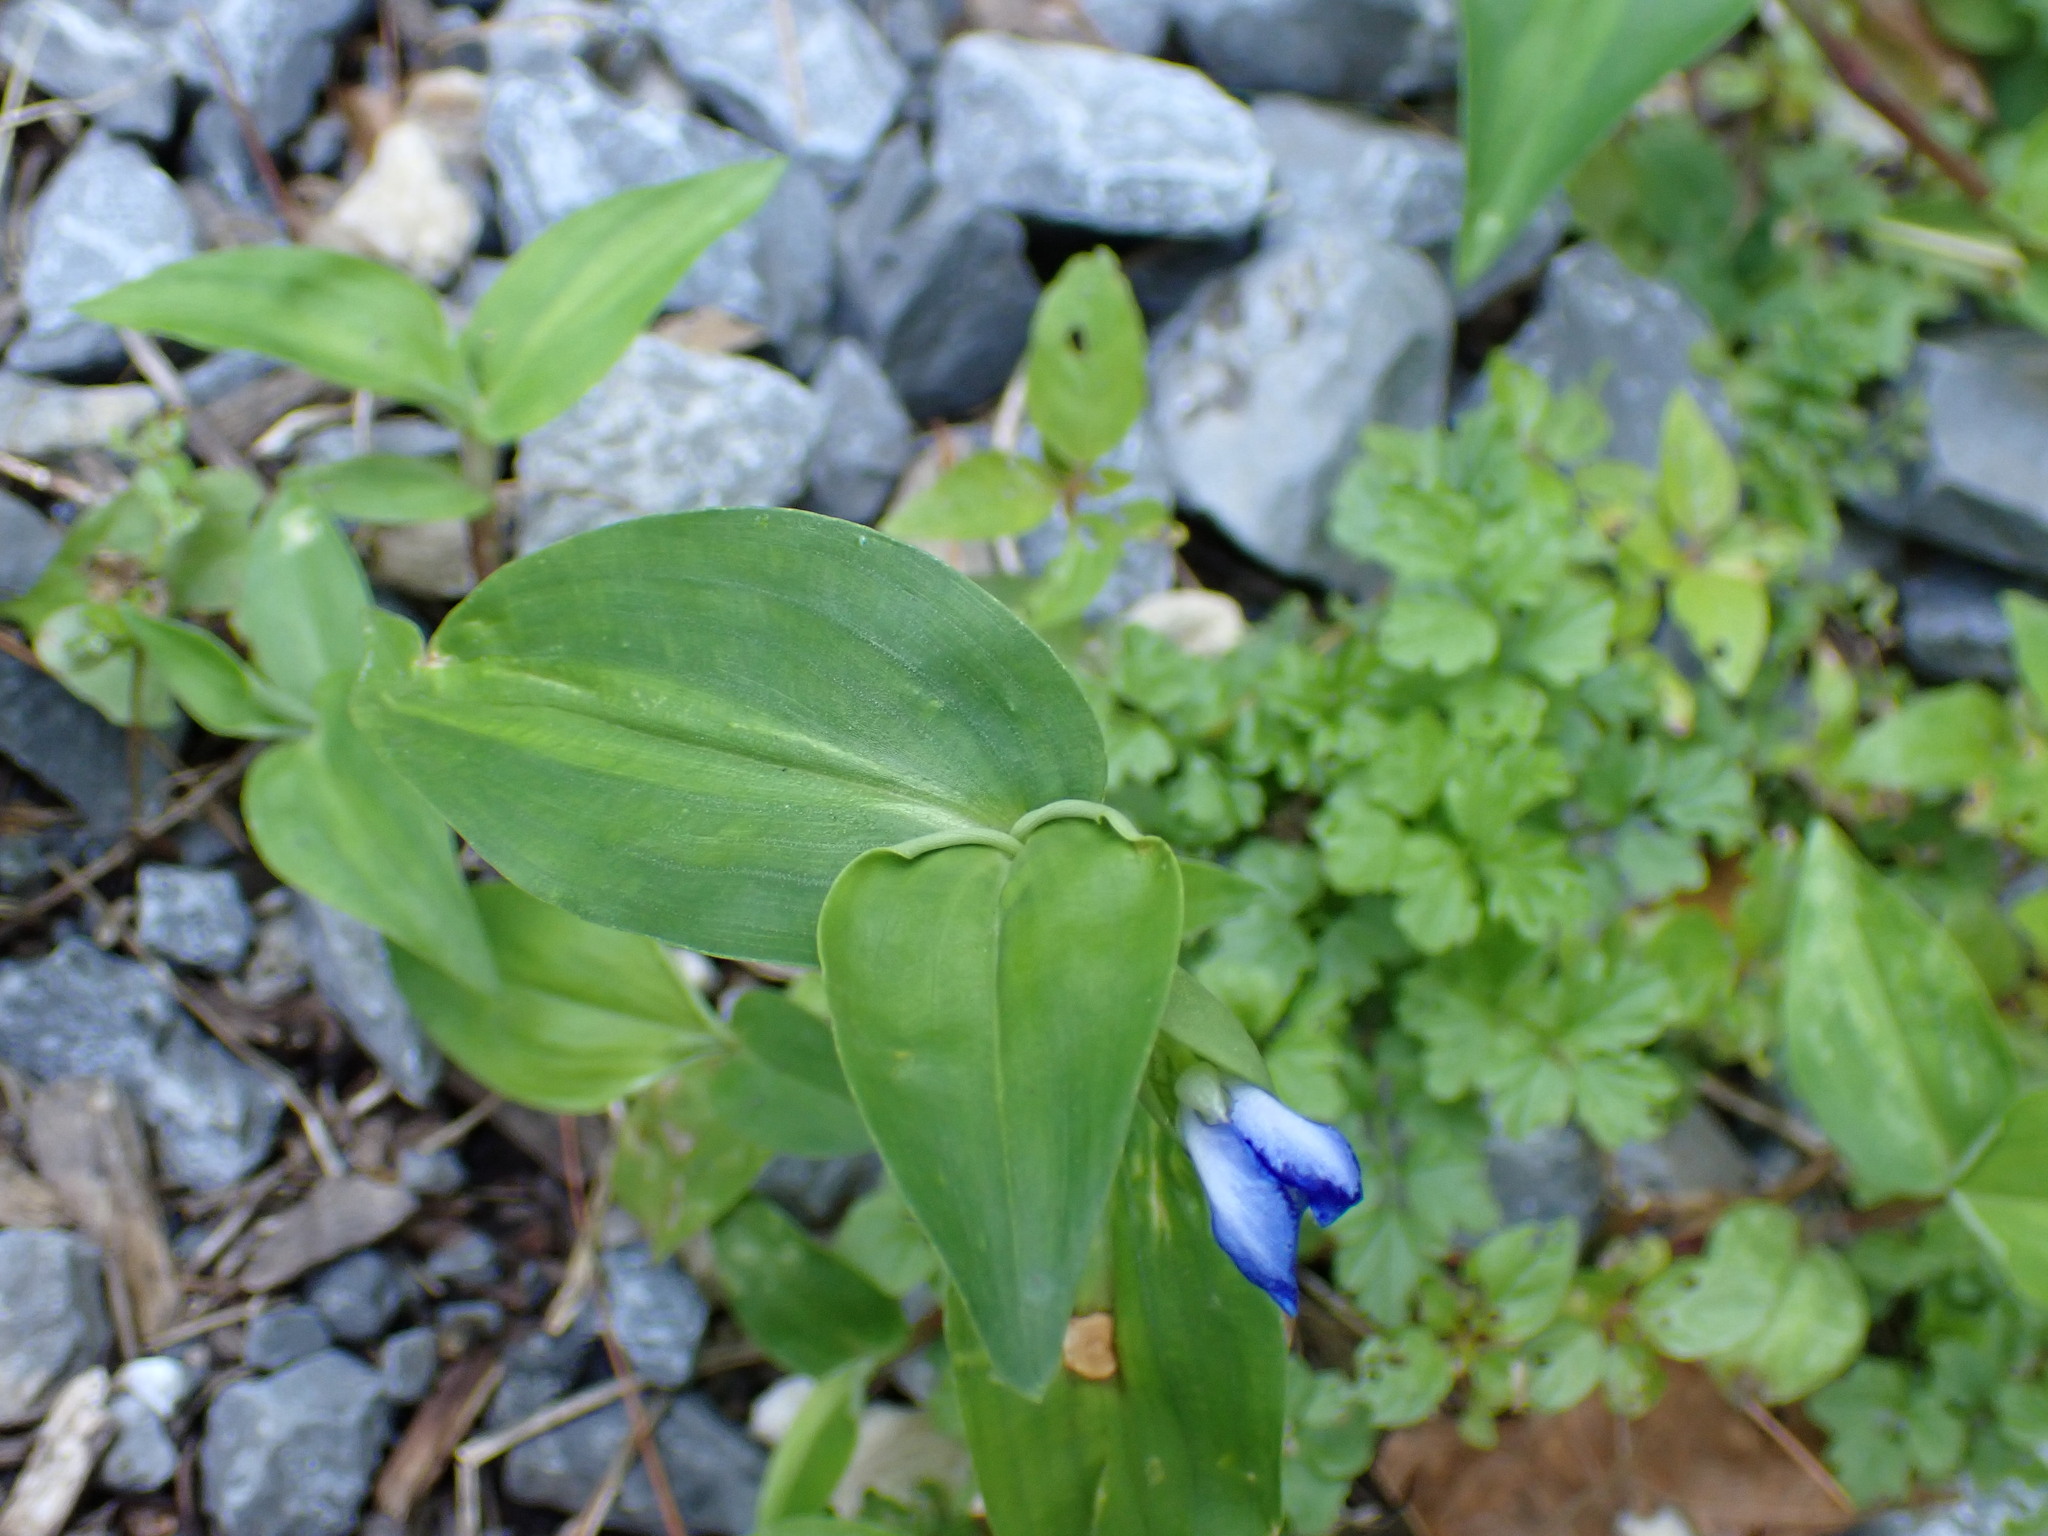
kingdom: Plantae
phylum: Tracheophyta
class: Liliopsida
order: Commelinales
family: Commelinaceae
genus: Commelina
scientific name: Commelina communis
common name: Asiatic dayflower
